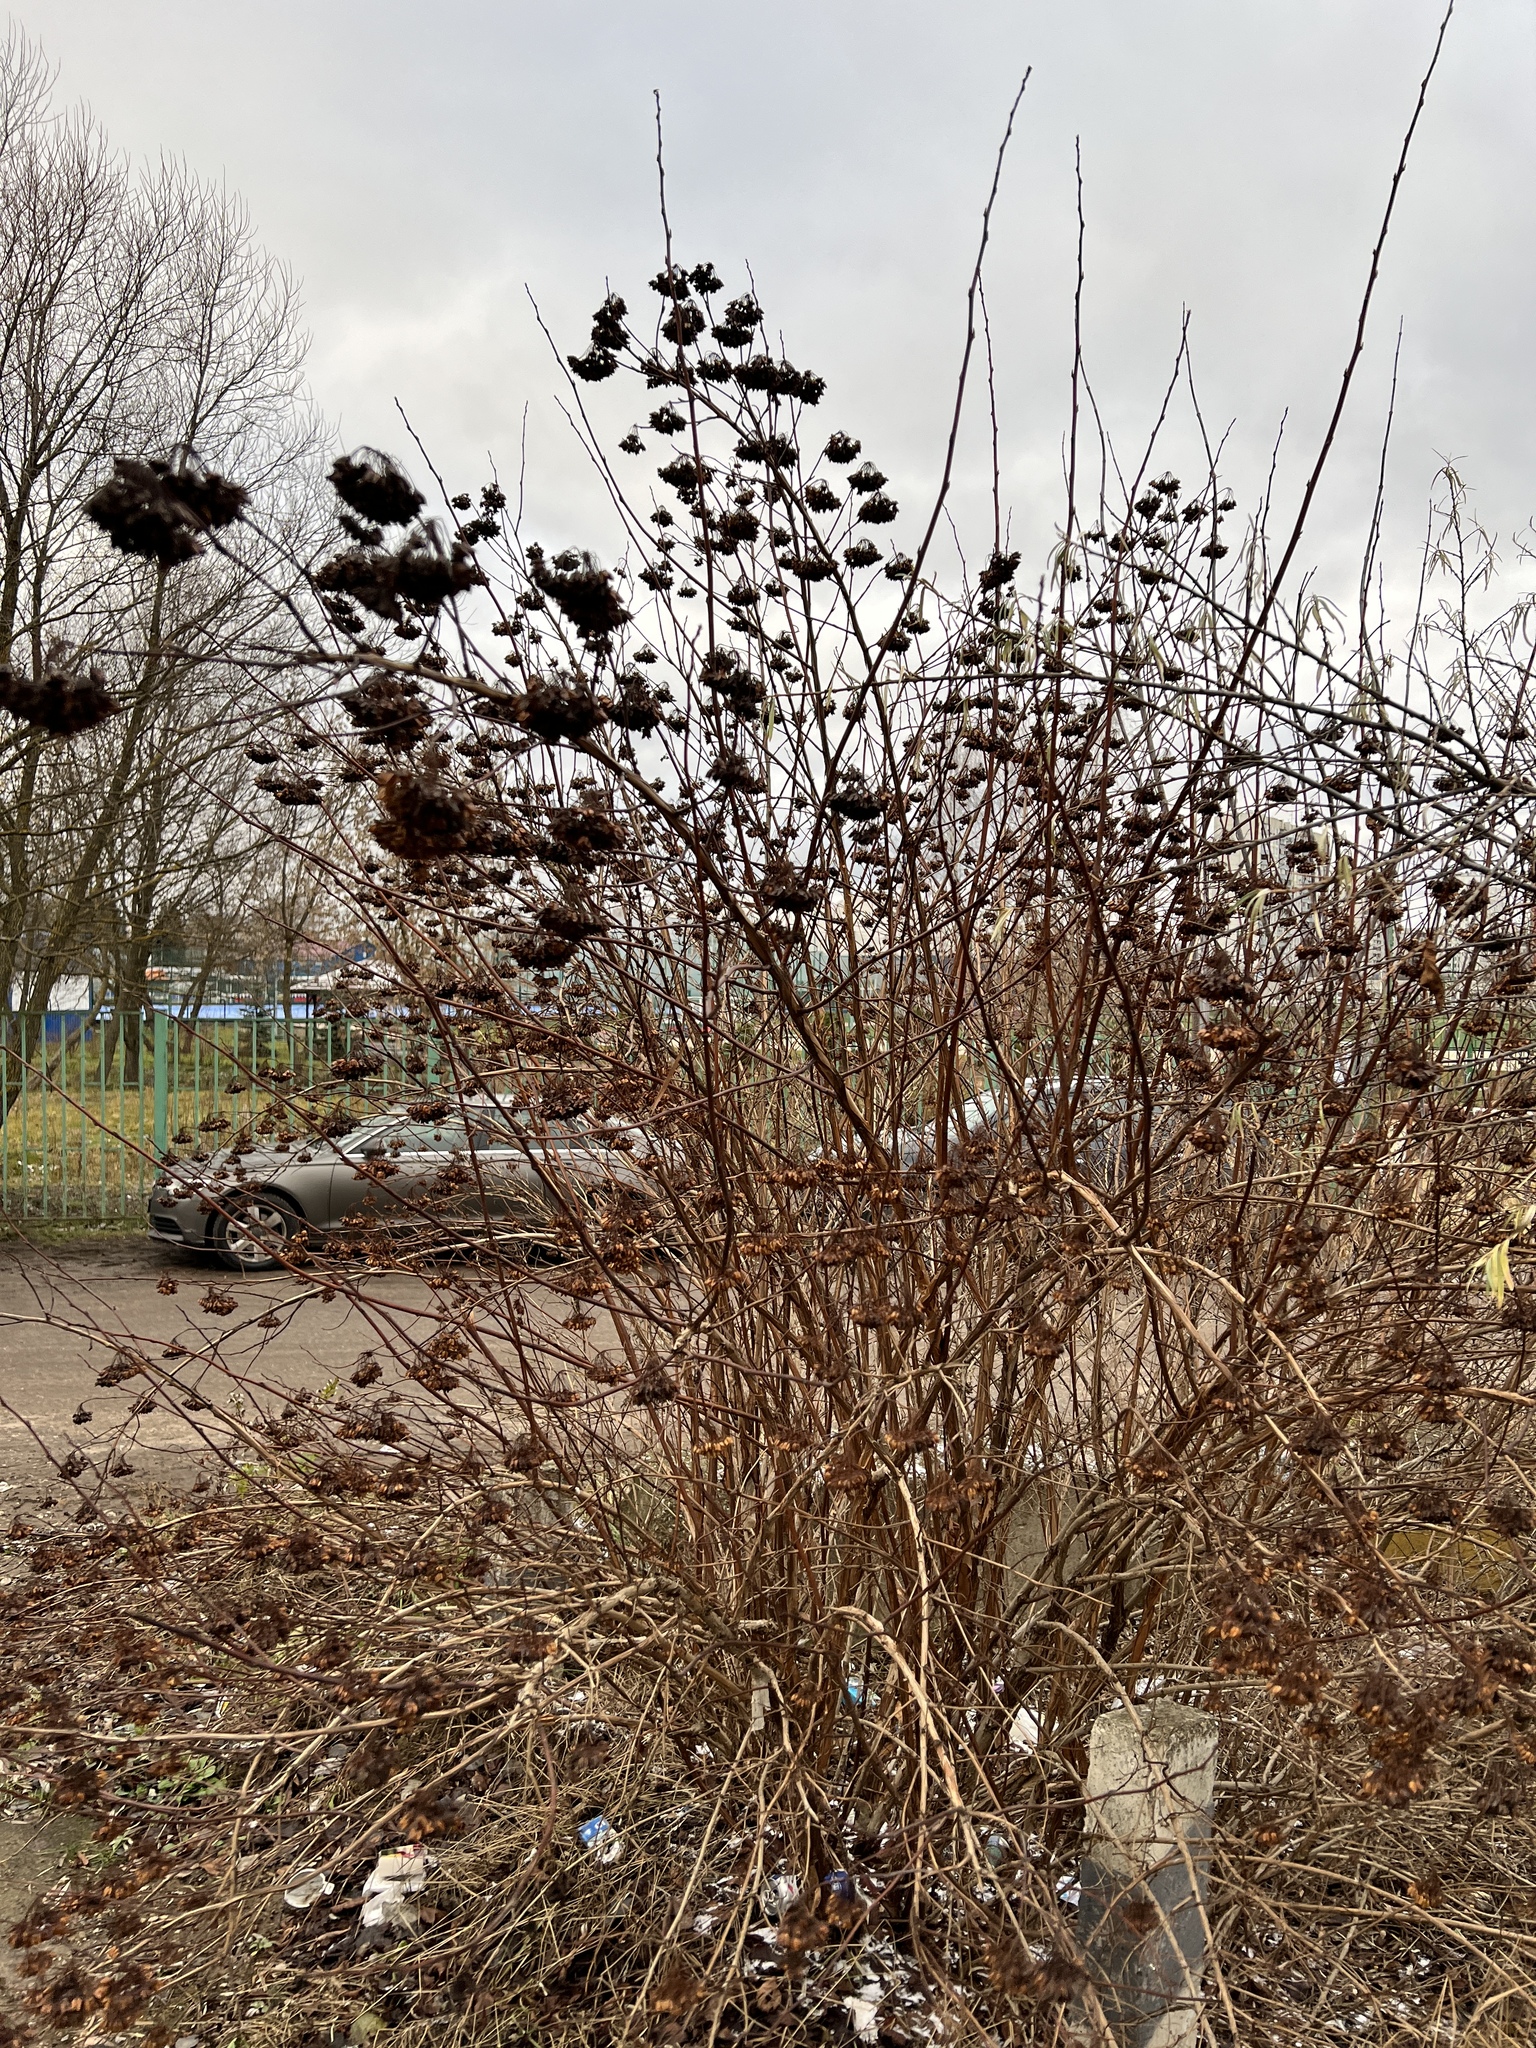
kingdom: Plantae
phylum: Tracheophyta
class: Magnoliopsida
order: Rosales
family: Rosaceae
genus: Physocarpus
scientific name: Physocarpus opulifolius
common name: Ninebark
